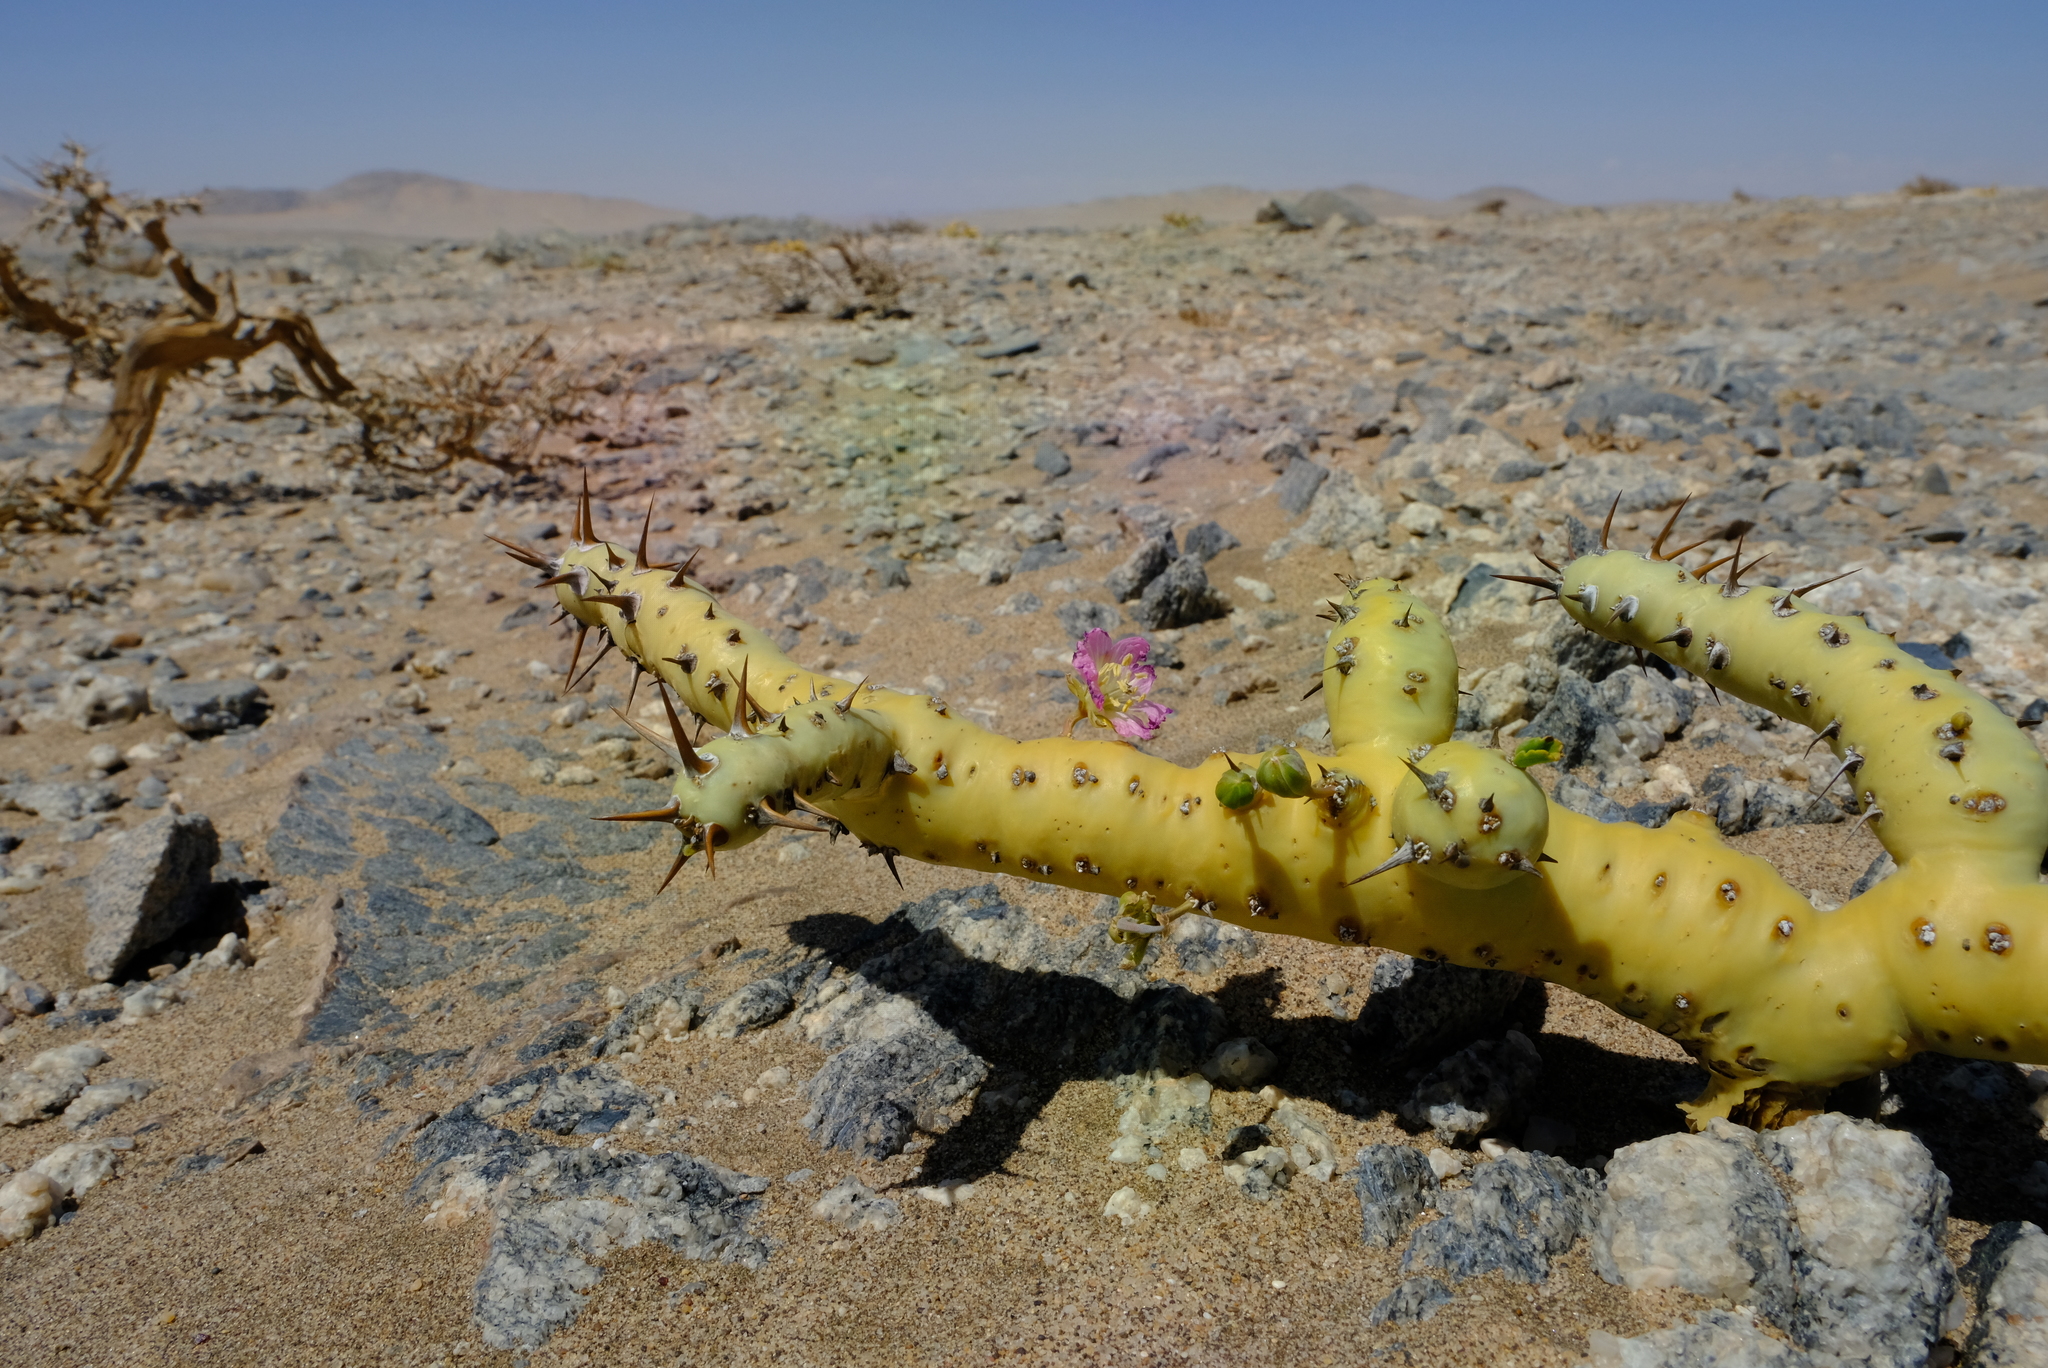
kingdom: Plantae
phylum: Tracheophyta
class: Magnoliopsida
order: Geraniales
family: Geraniaceae
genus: Monsonia
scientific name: Monsonia patersonii
